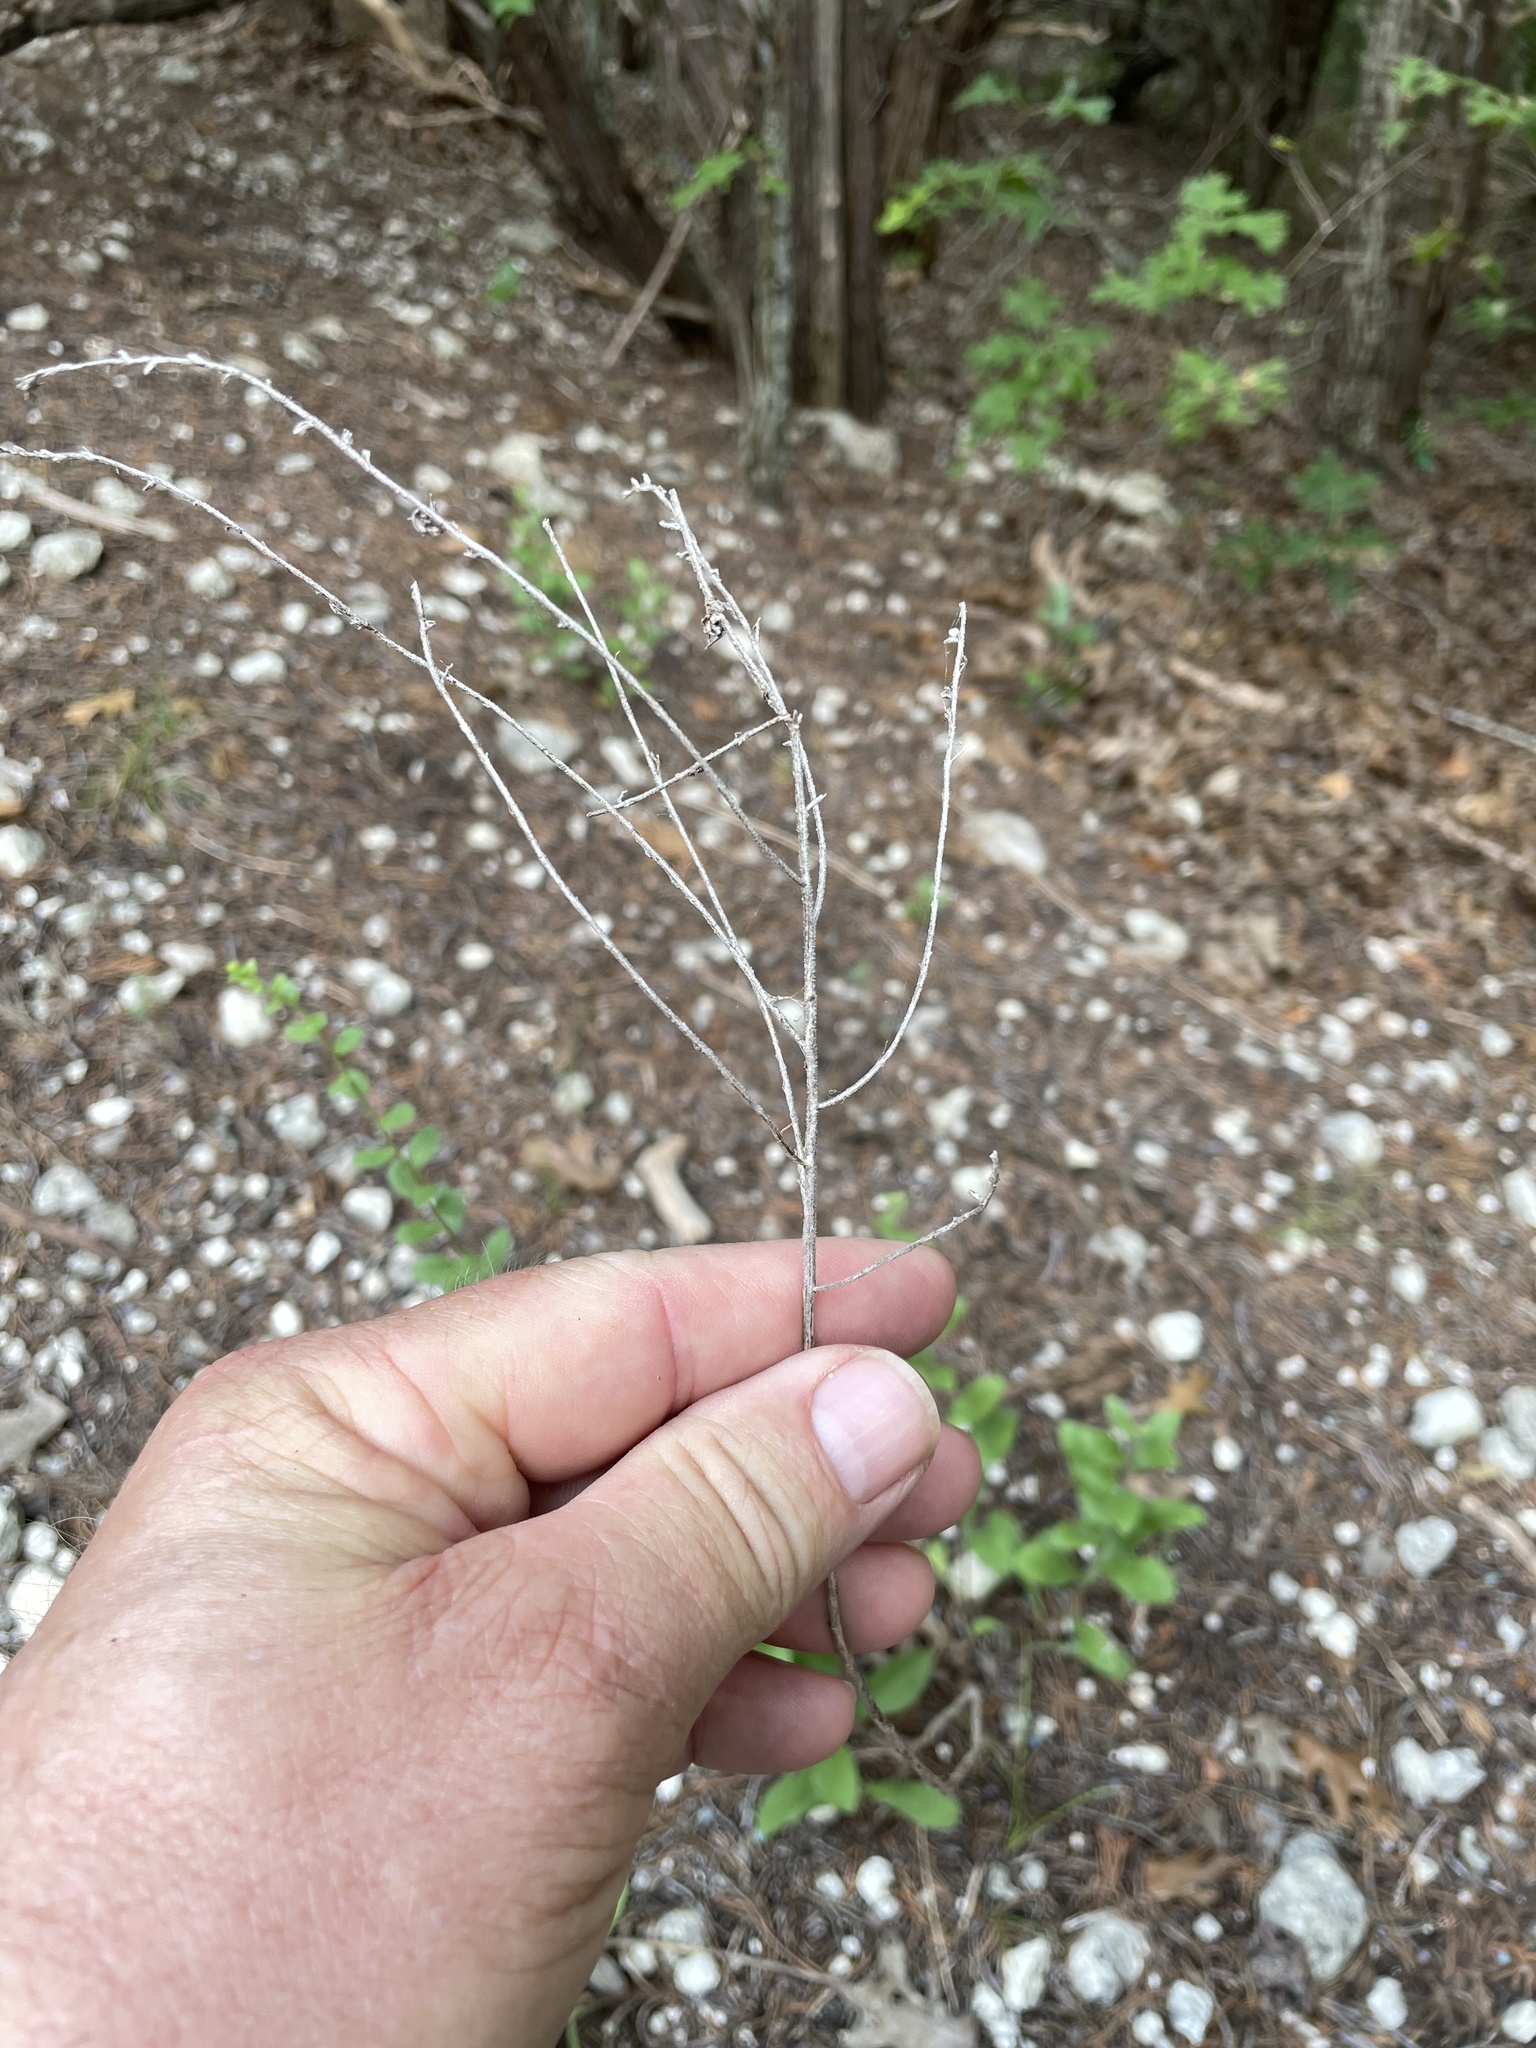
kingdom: Plantae
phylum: Tracheophyta
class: Magnoliopsida
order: Asterales
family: Asteraceae
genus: Solidago
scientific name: Solidago radula
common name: Western rough goldenrod
